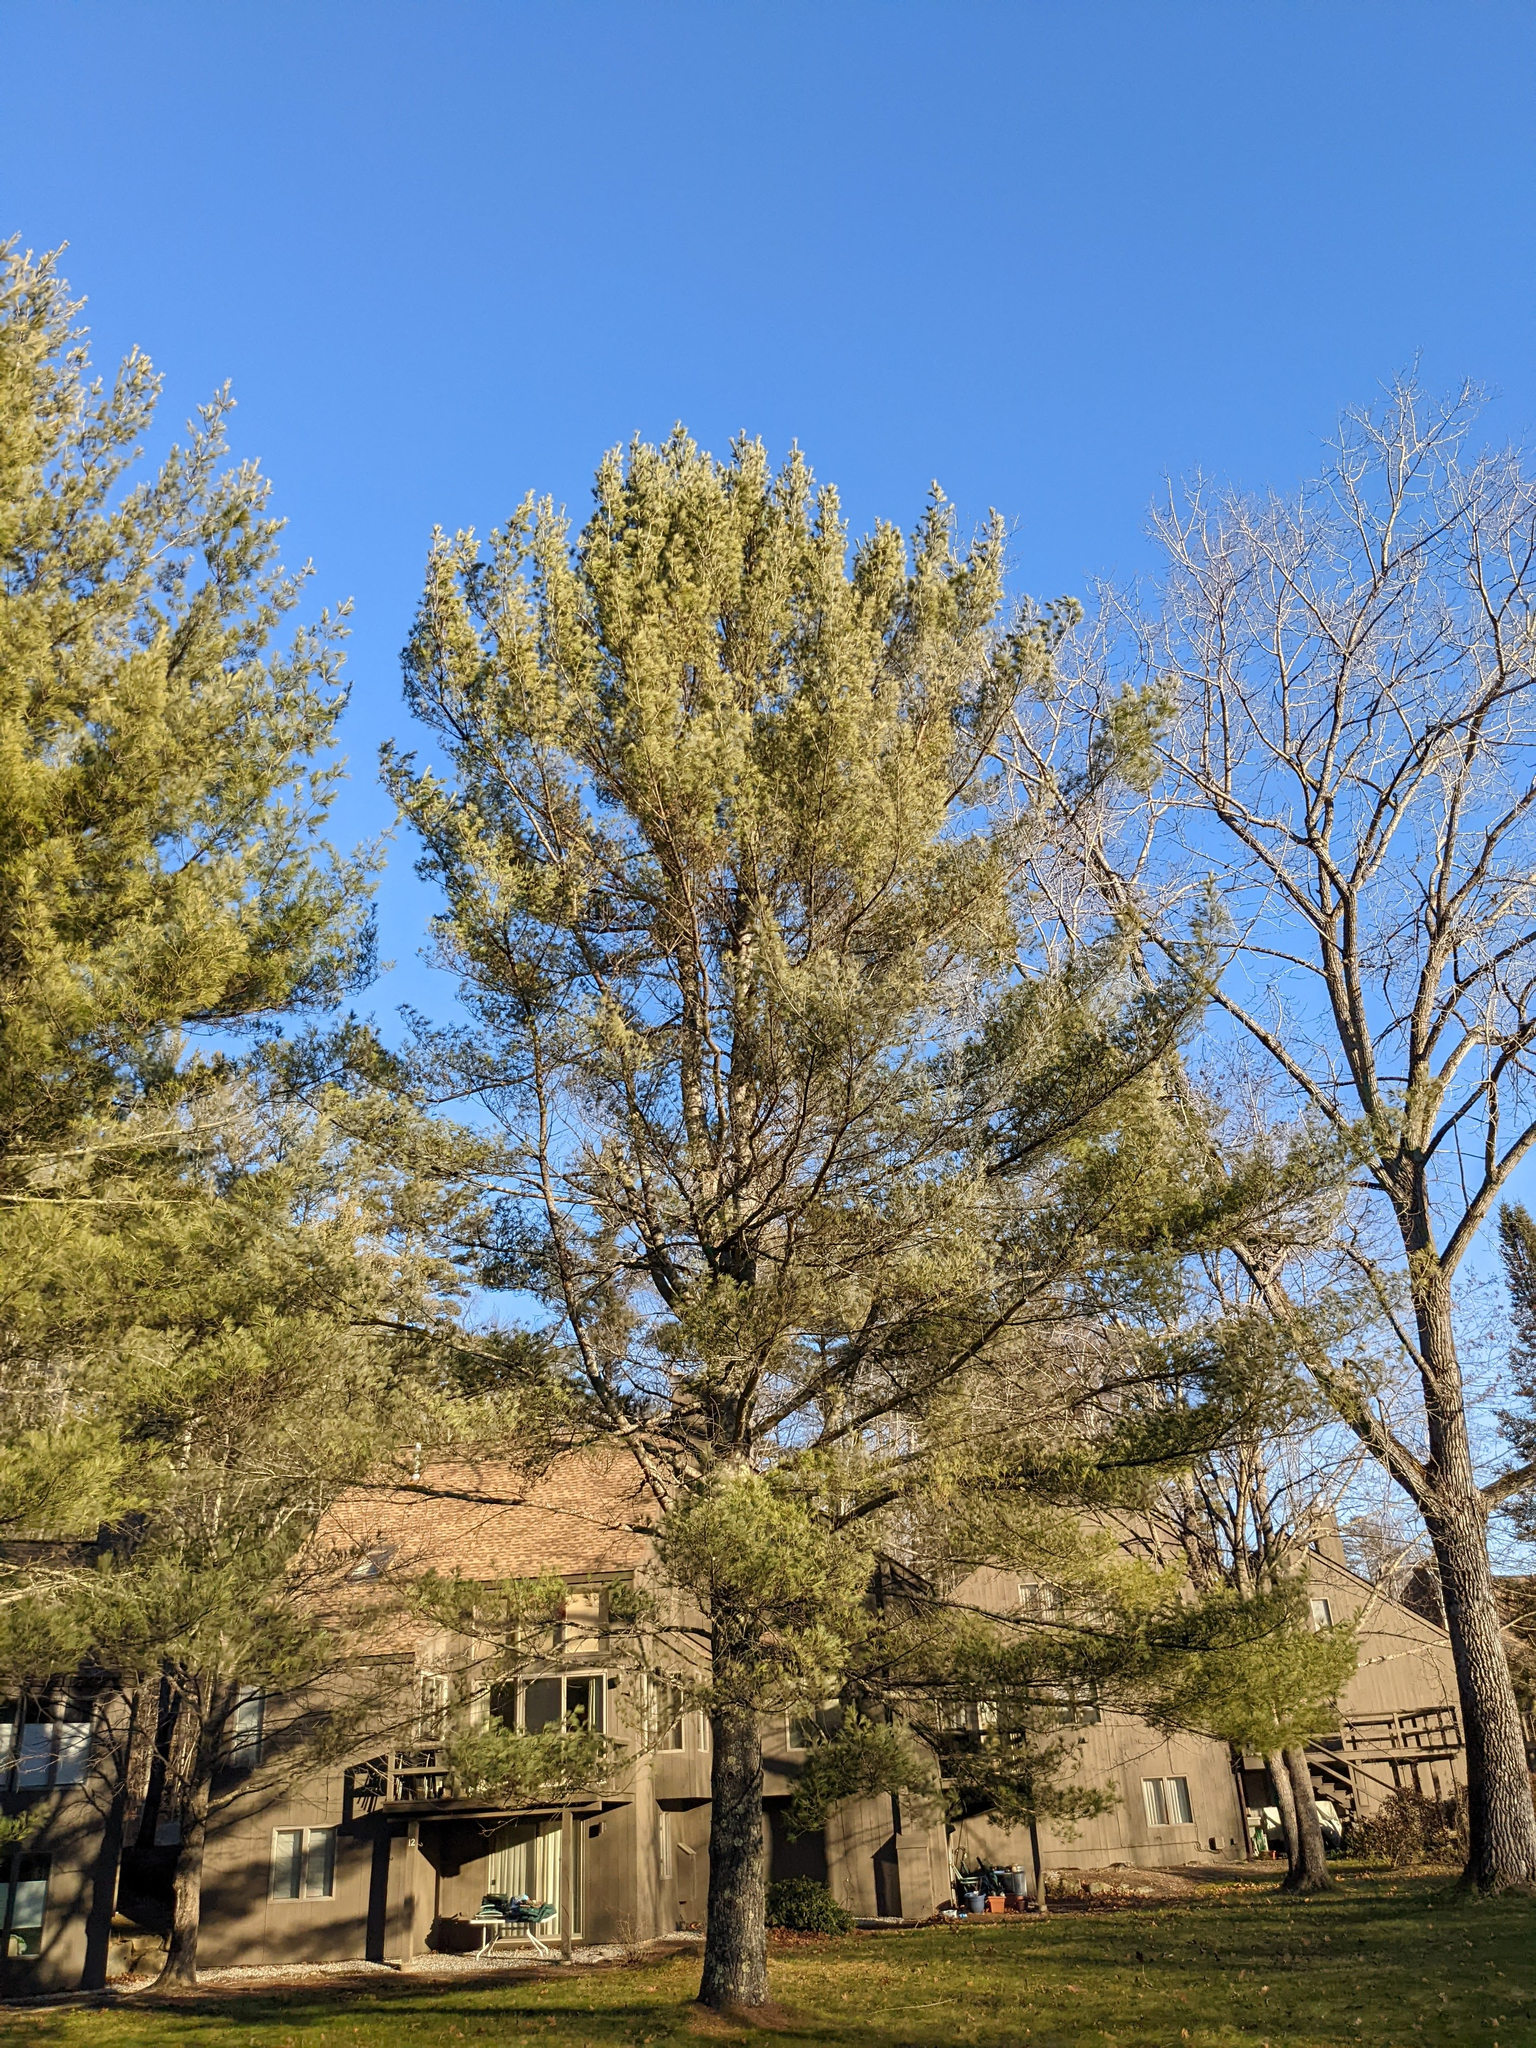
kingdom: Plantae
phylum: Tracheophyta
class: Pinopsida
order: Pinales
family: Pinaceae
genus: Pinus
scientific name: Pinus strobus
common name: Weymouth pine
